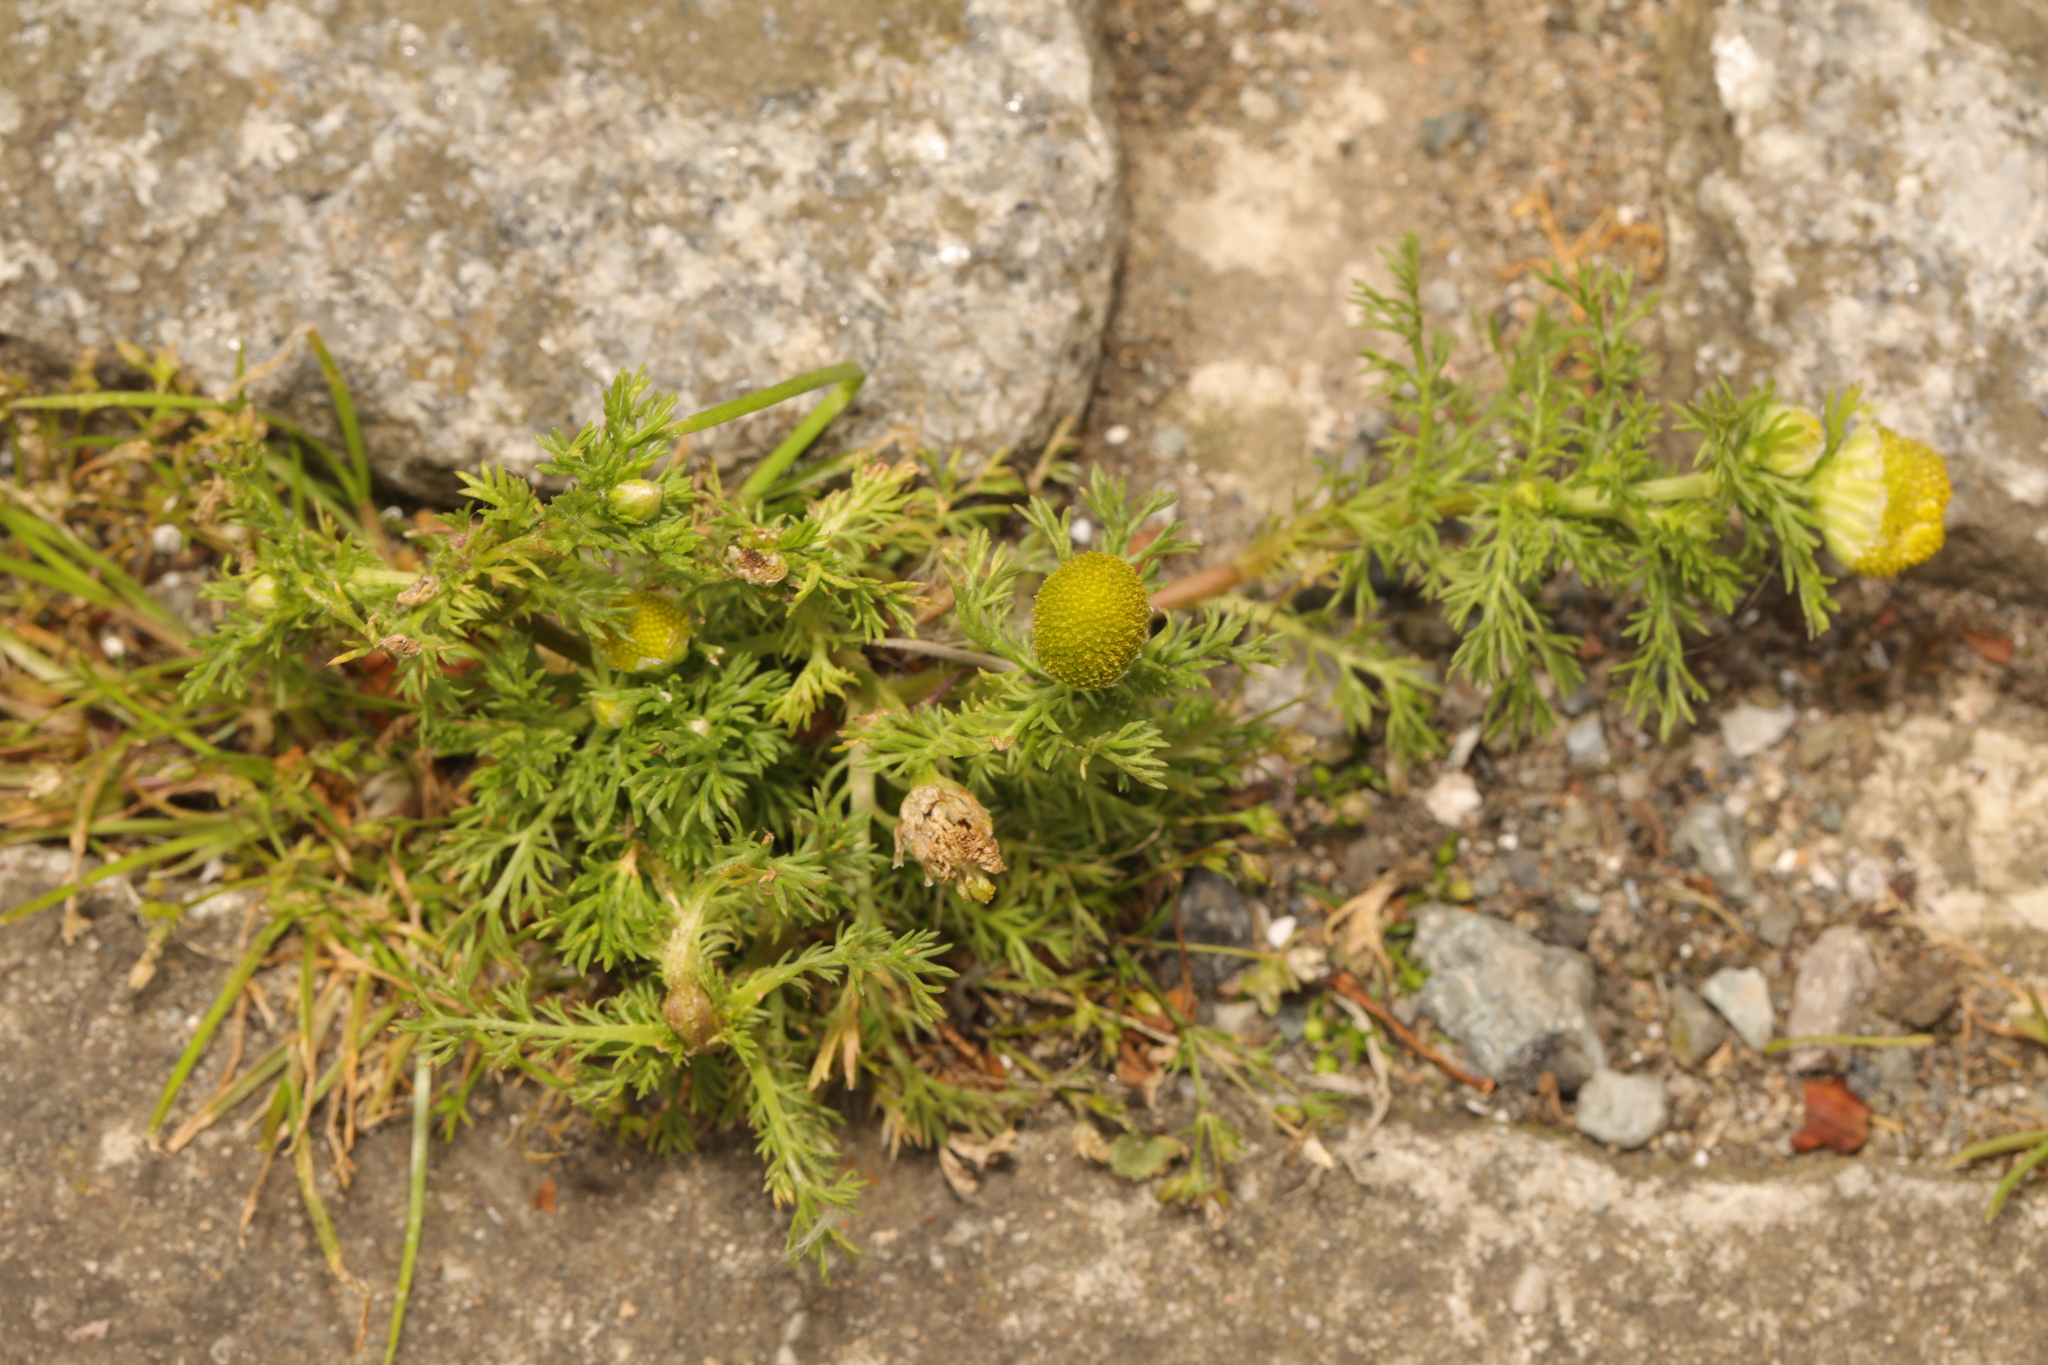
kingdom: Plantae
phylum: Tracheophyta
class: Magnoliopsida
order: Asterales
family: Asteraceae
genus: Matricaria
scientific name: Matricaria discoidea
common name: Disc mayweed
